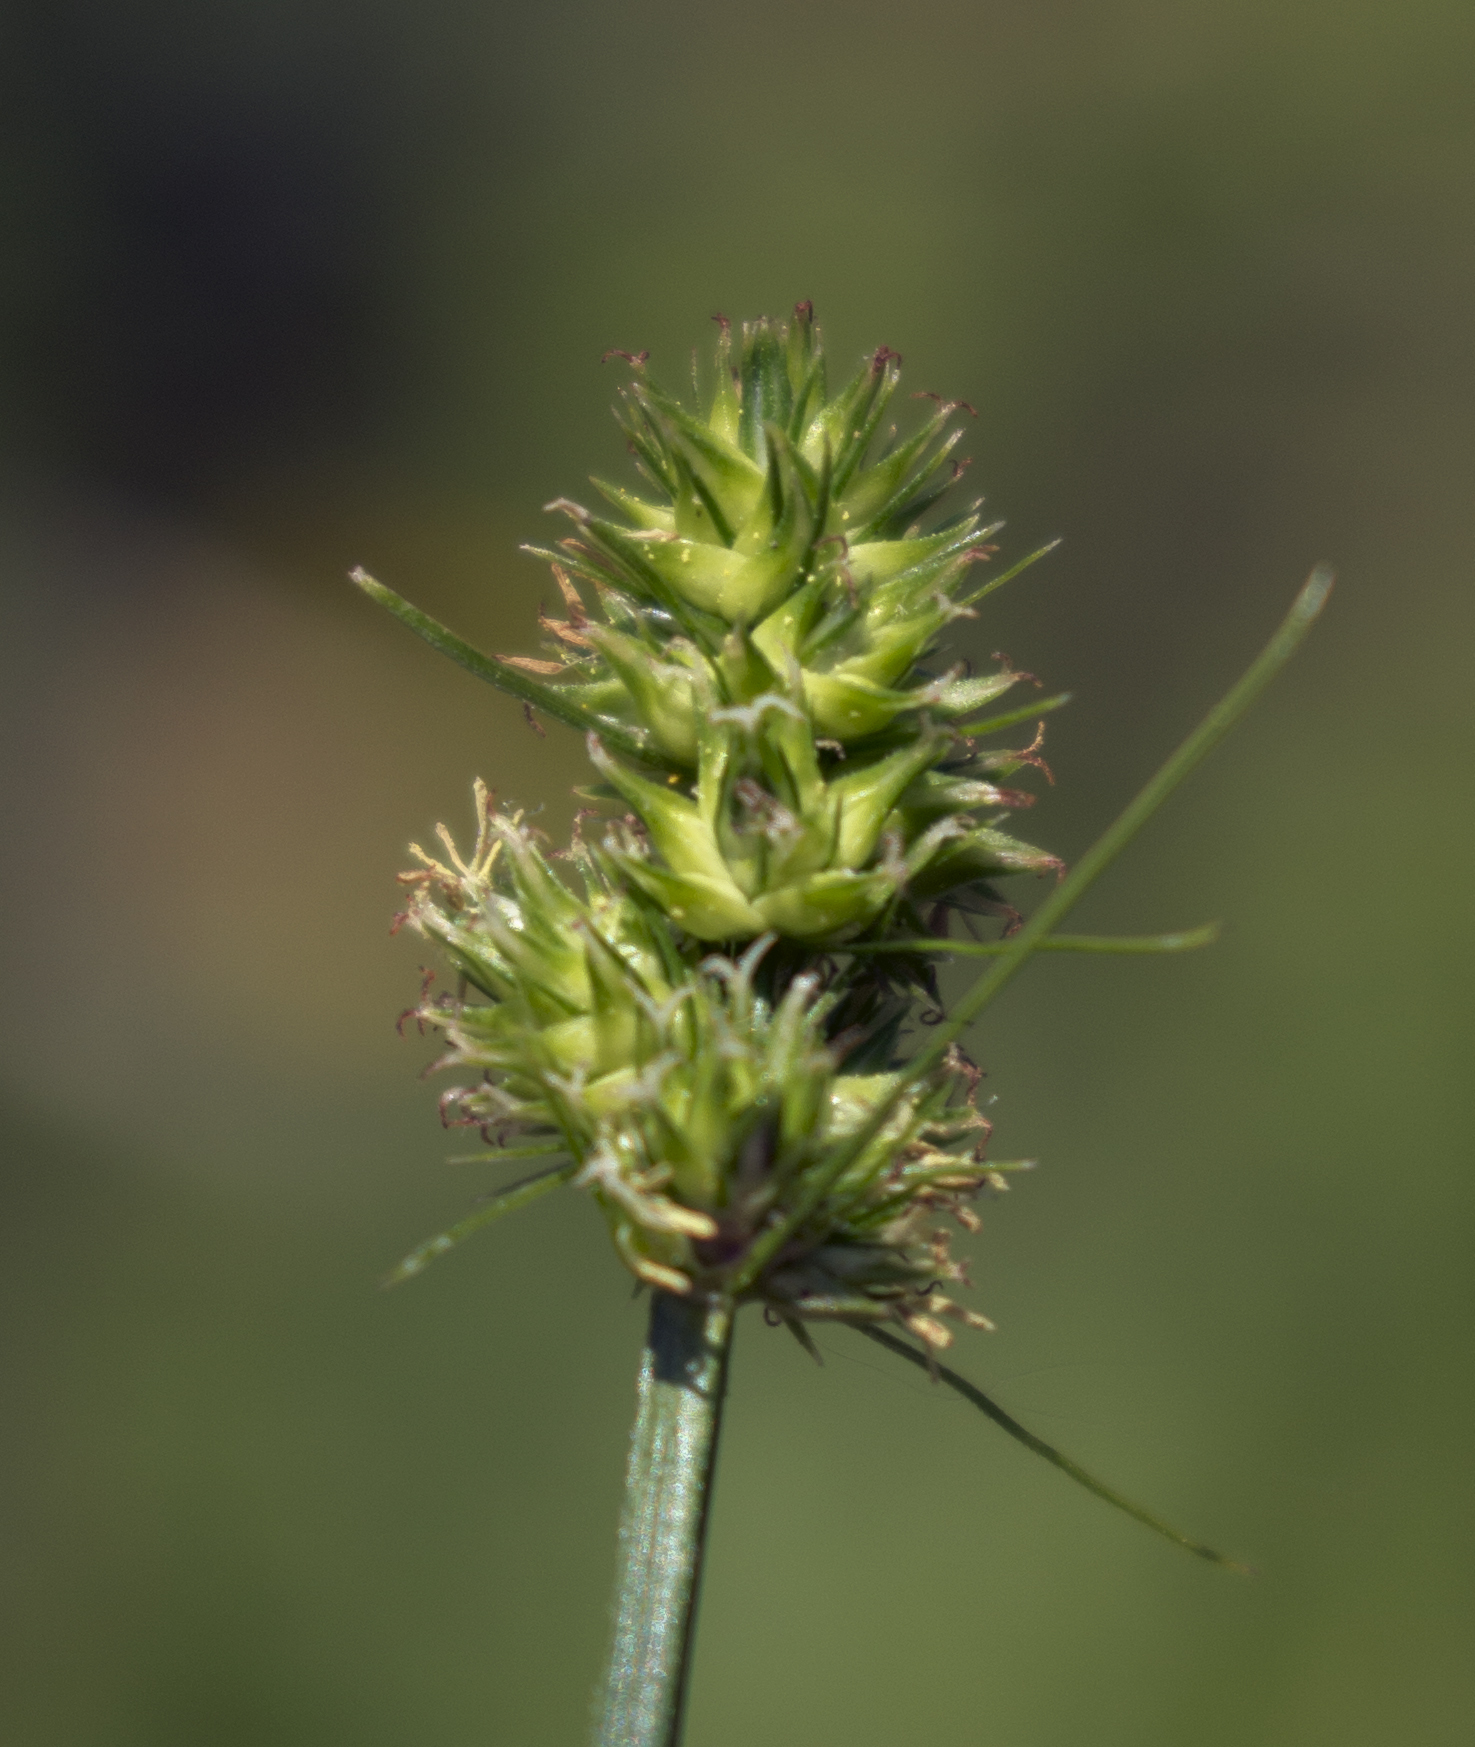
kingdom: Plantae
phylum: Tracheophyta
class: Liliopsida
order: Poales
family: Cyperaceae
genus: Carex
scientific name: Carex cephalophora
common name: Oval-headed sedge
